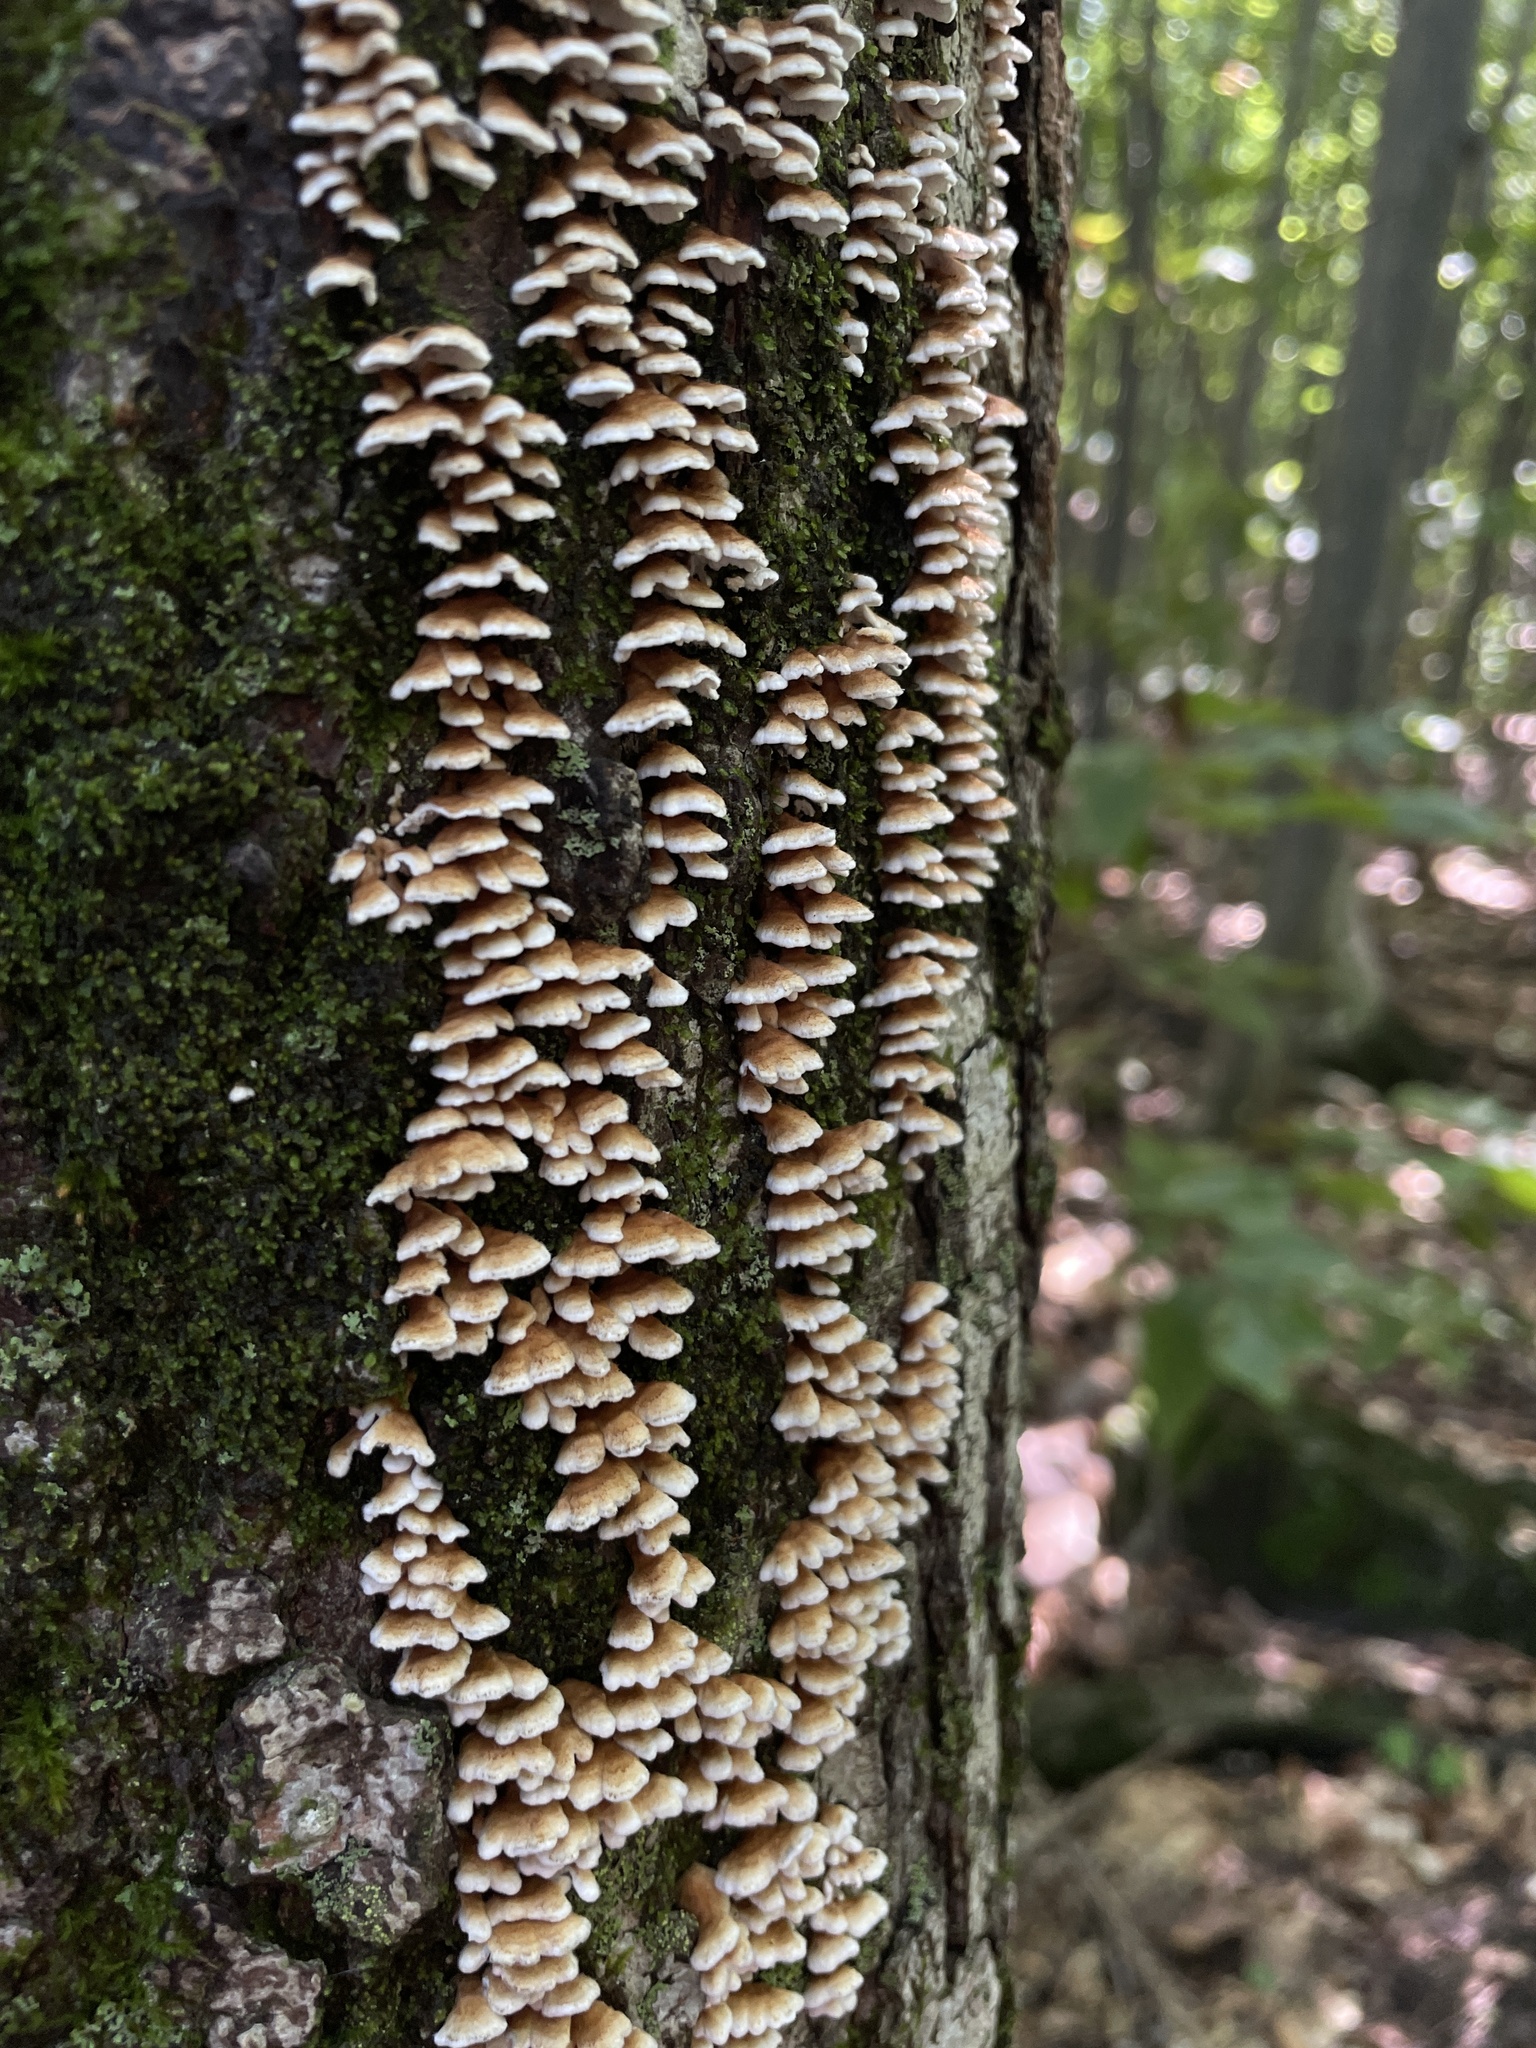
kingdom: Fungi
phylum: Basidiomycota
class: Agaricomycetes
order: Amylocorticiales
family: Amylocorticiaceae
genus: Plicaturopsis
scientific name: Plicaturopsis crispa
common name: Crimped gill
